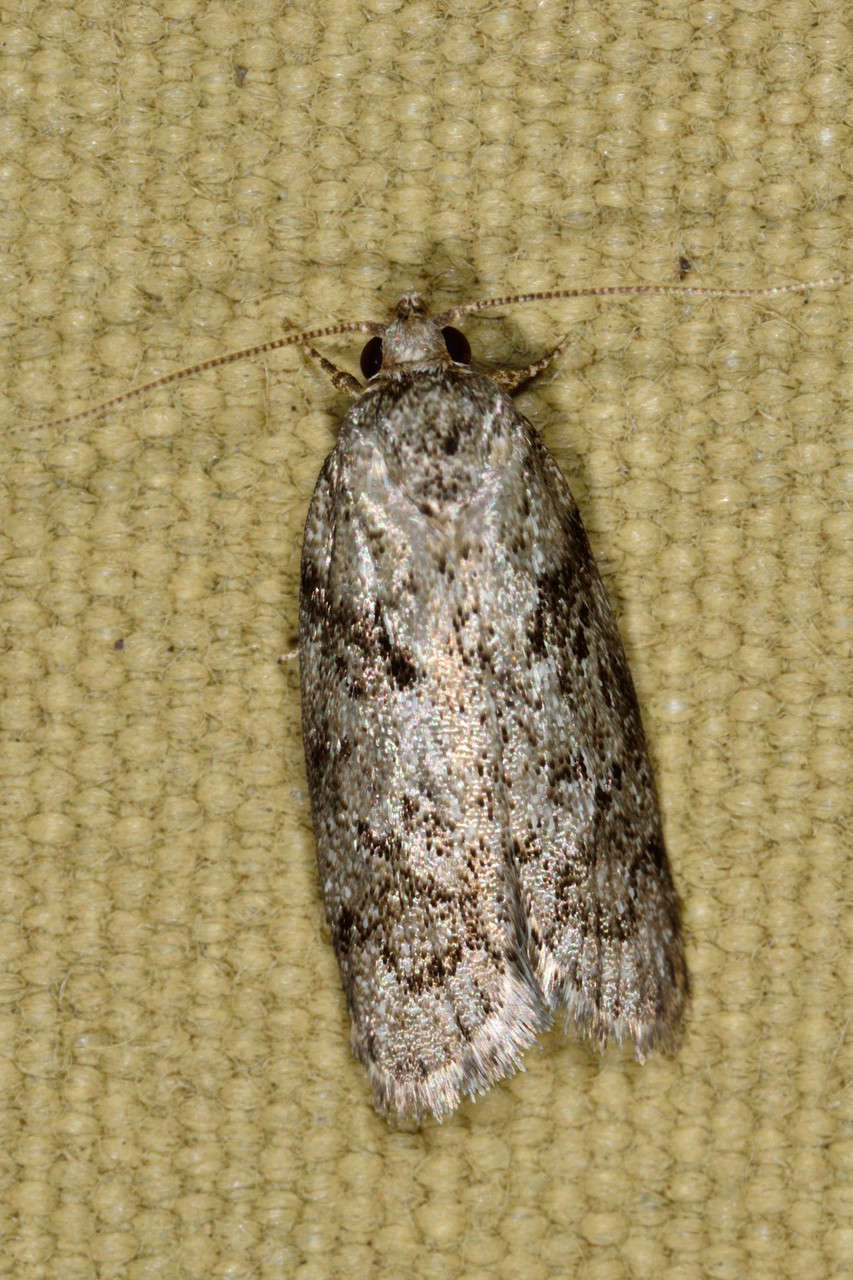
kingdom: Animalia
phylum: Arthropoda
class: Insecta
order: Lepidoptera
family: Oecophoridae
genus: Philobota
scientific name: Philobota mucida
